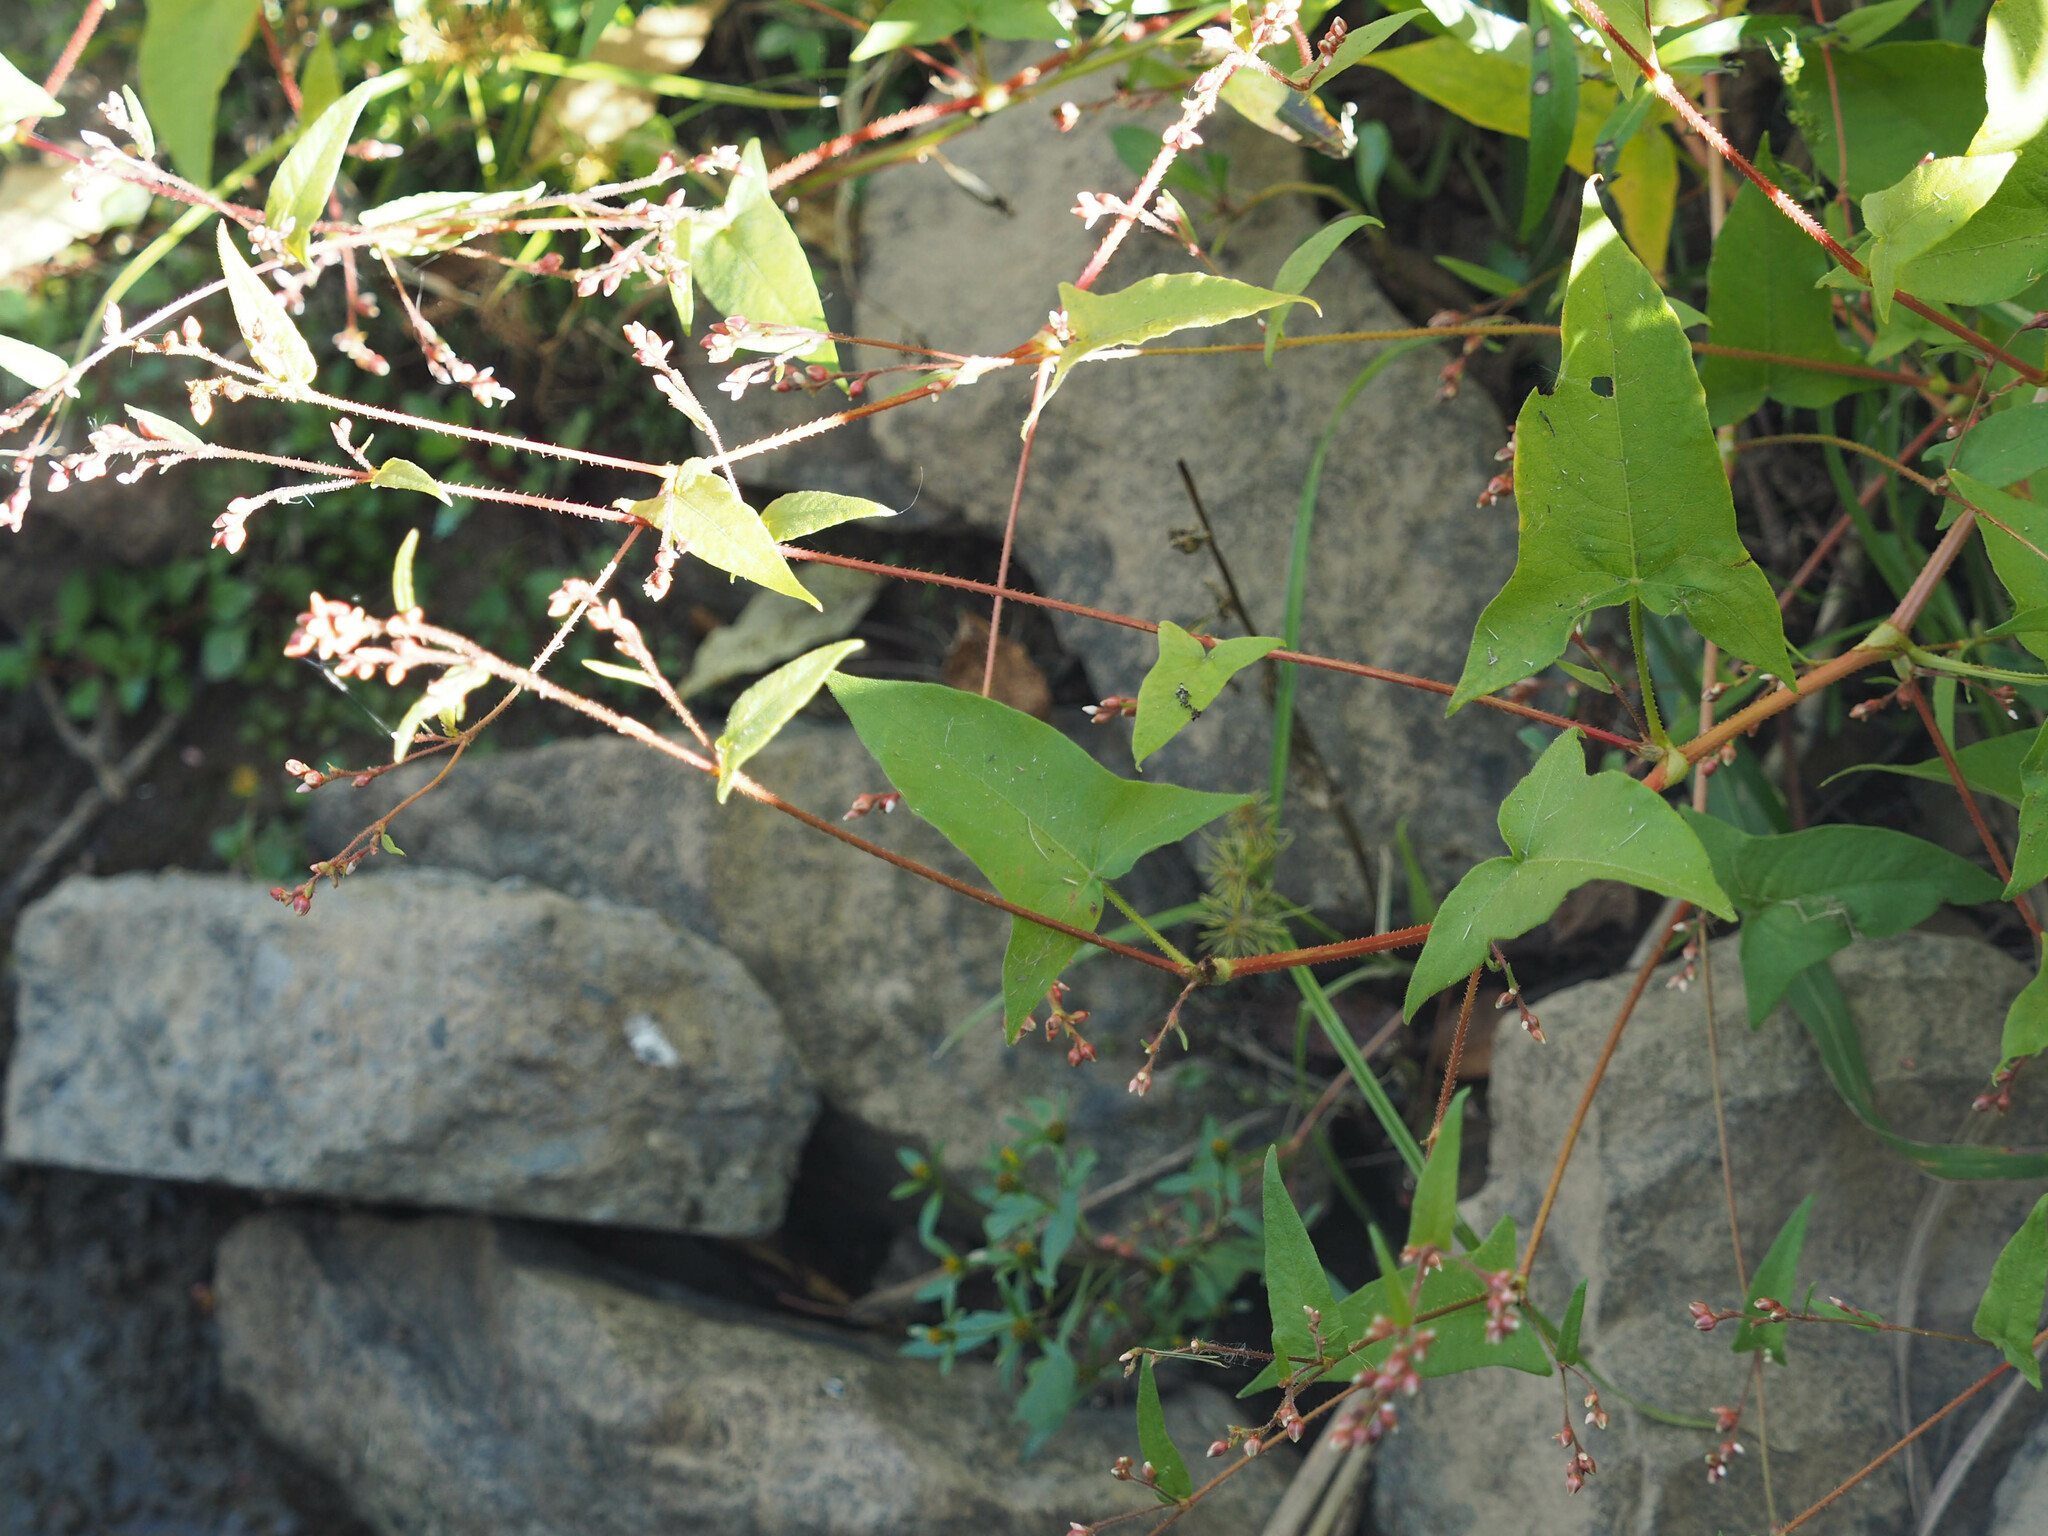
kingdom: Plantae
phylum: Tracheophyta
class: Magnoliopsida
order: Caryophyllales
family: Polygonaceae
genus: Persicaria
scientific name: Persicaria arifolia
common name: Halberd-leaved tear-thumb
